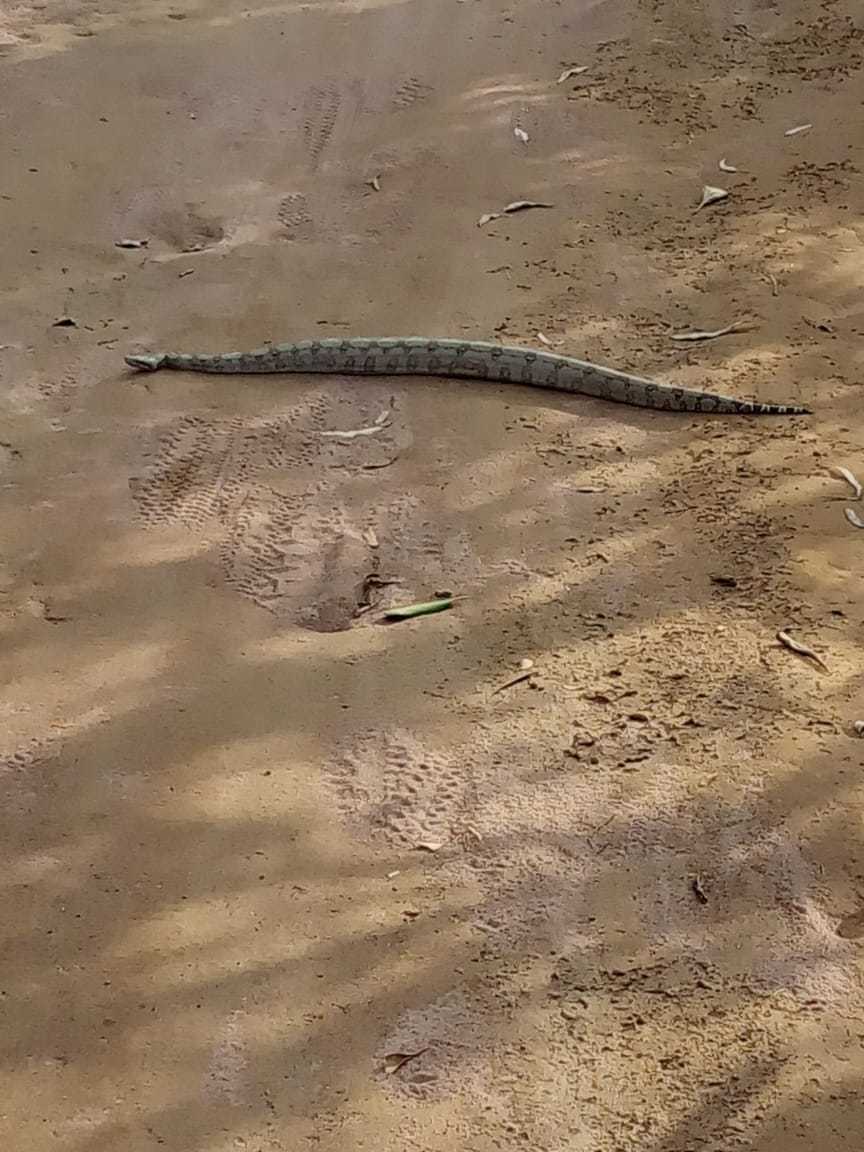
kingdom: Animalia
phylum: Chordata
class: Squamata
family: Boidae
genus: Boa
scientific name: Boa constrictor
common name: Boa constrictor
